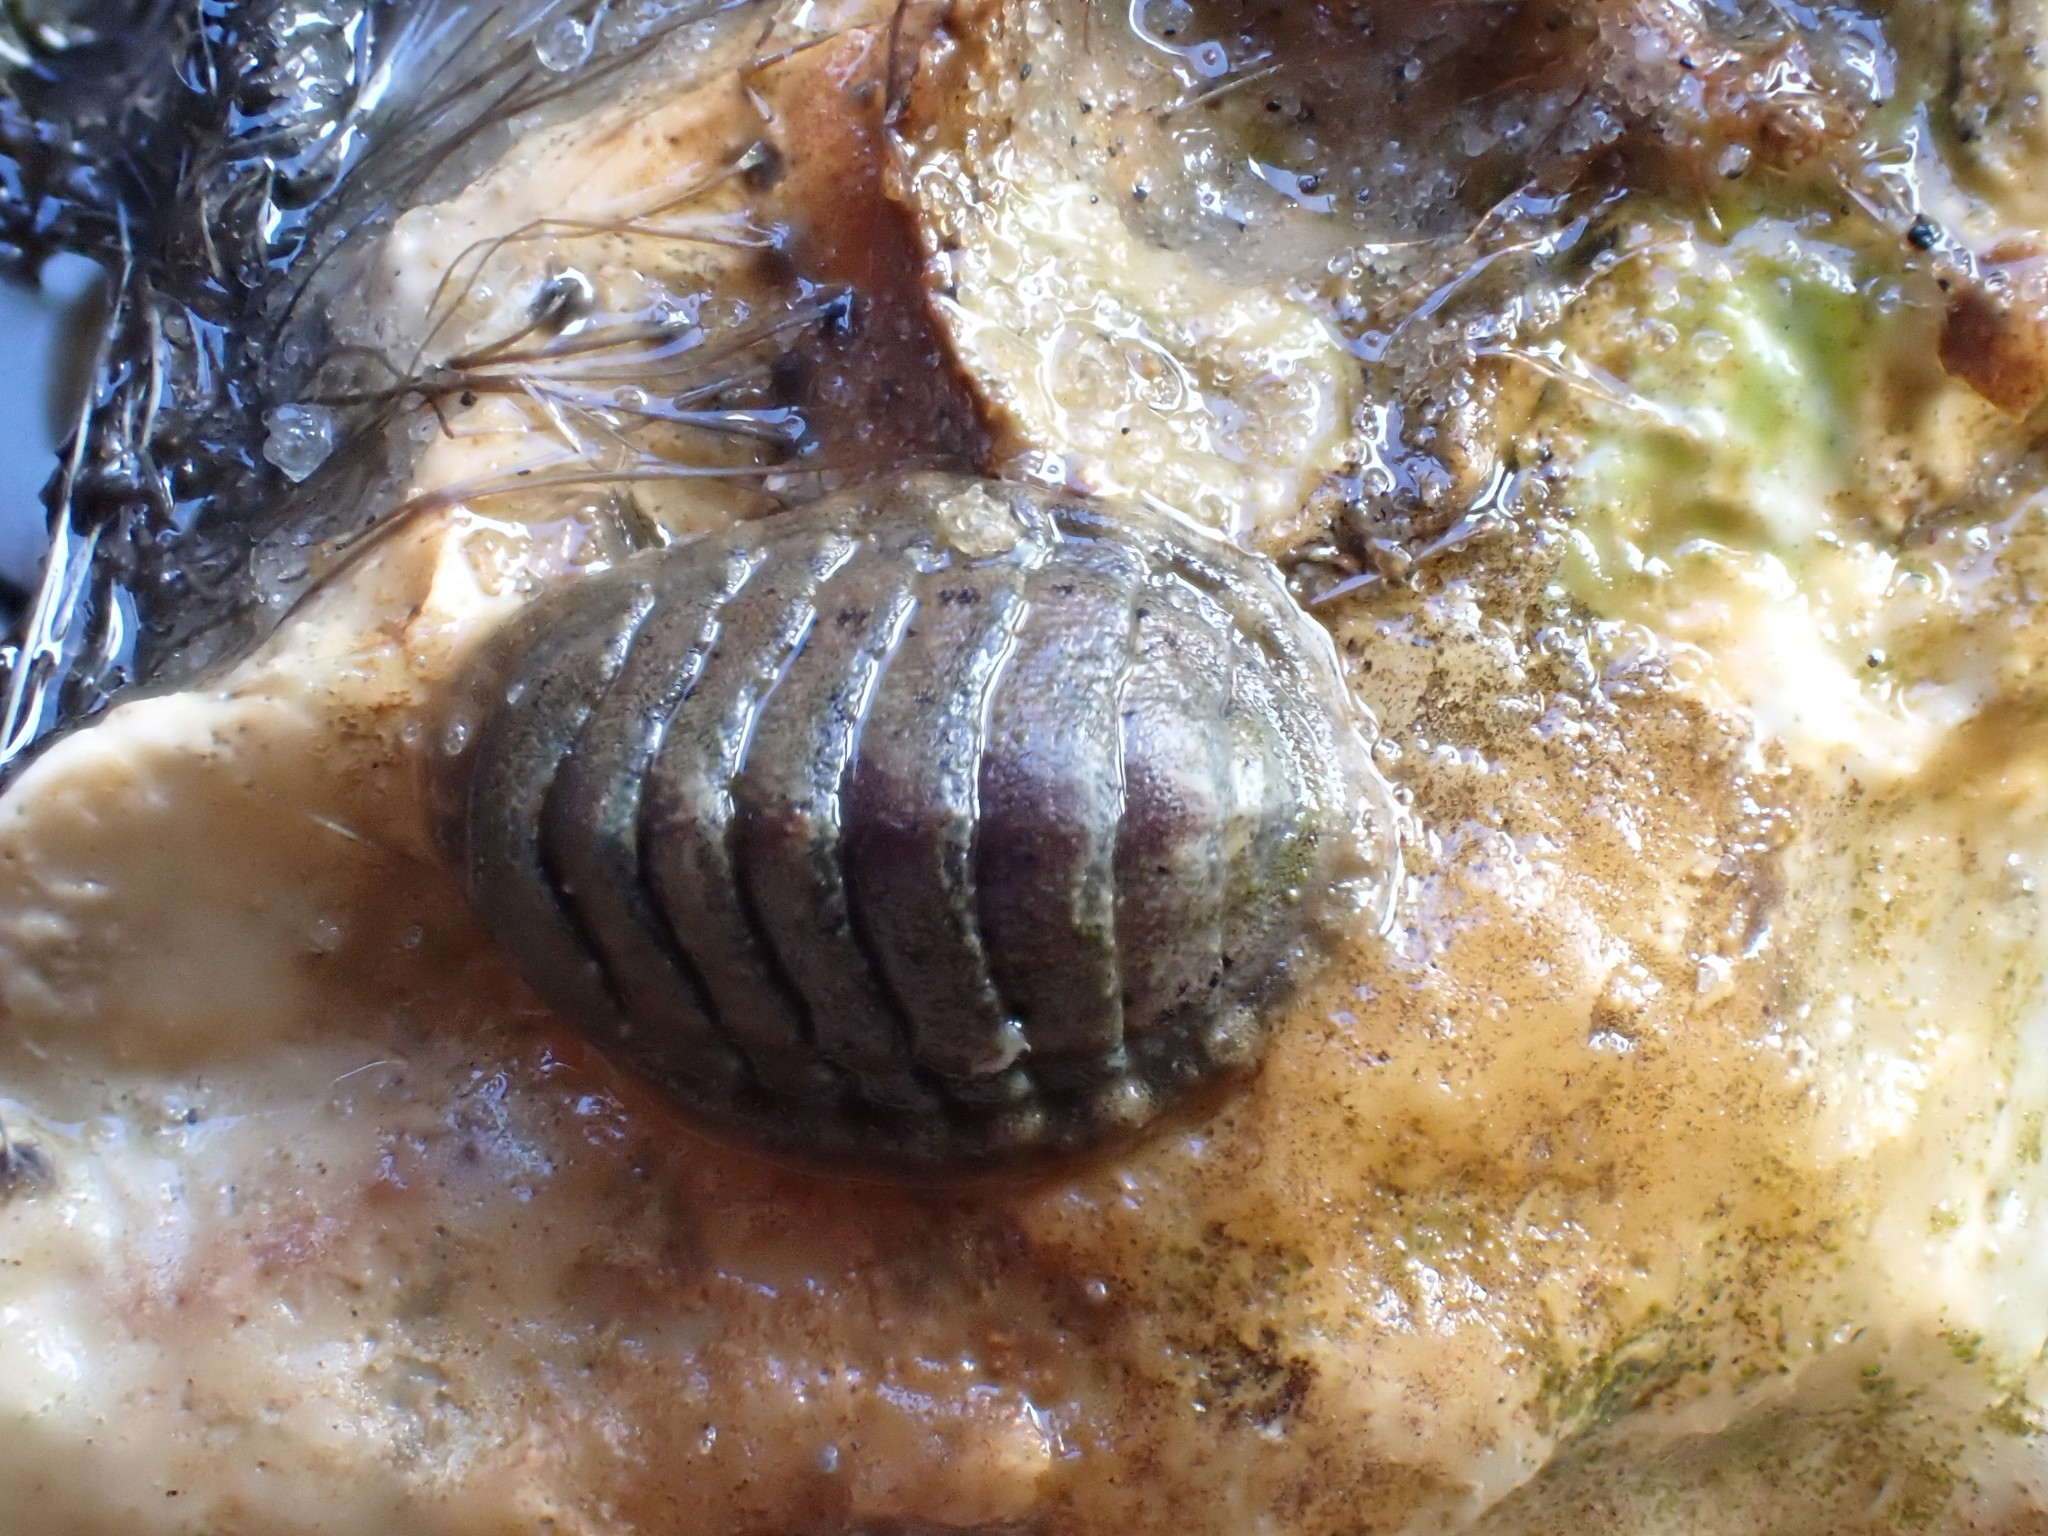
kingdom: Animalia
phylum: Mollusca
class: Polyplacophora
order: Chitonida
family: Tonicellidae
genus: Lepidochitona
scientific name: Lepidochitona cinerea
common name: Cinereous chiton
